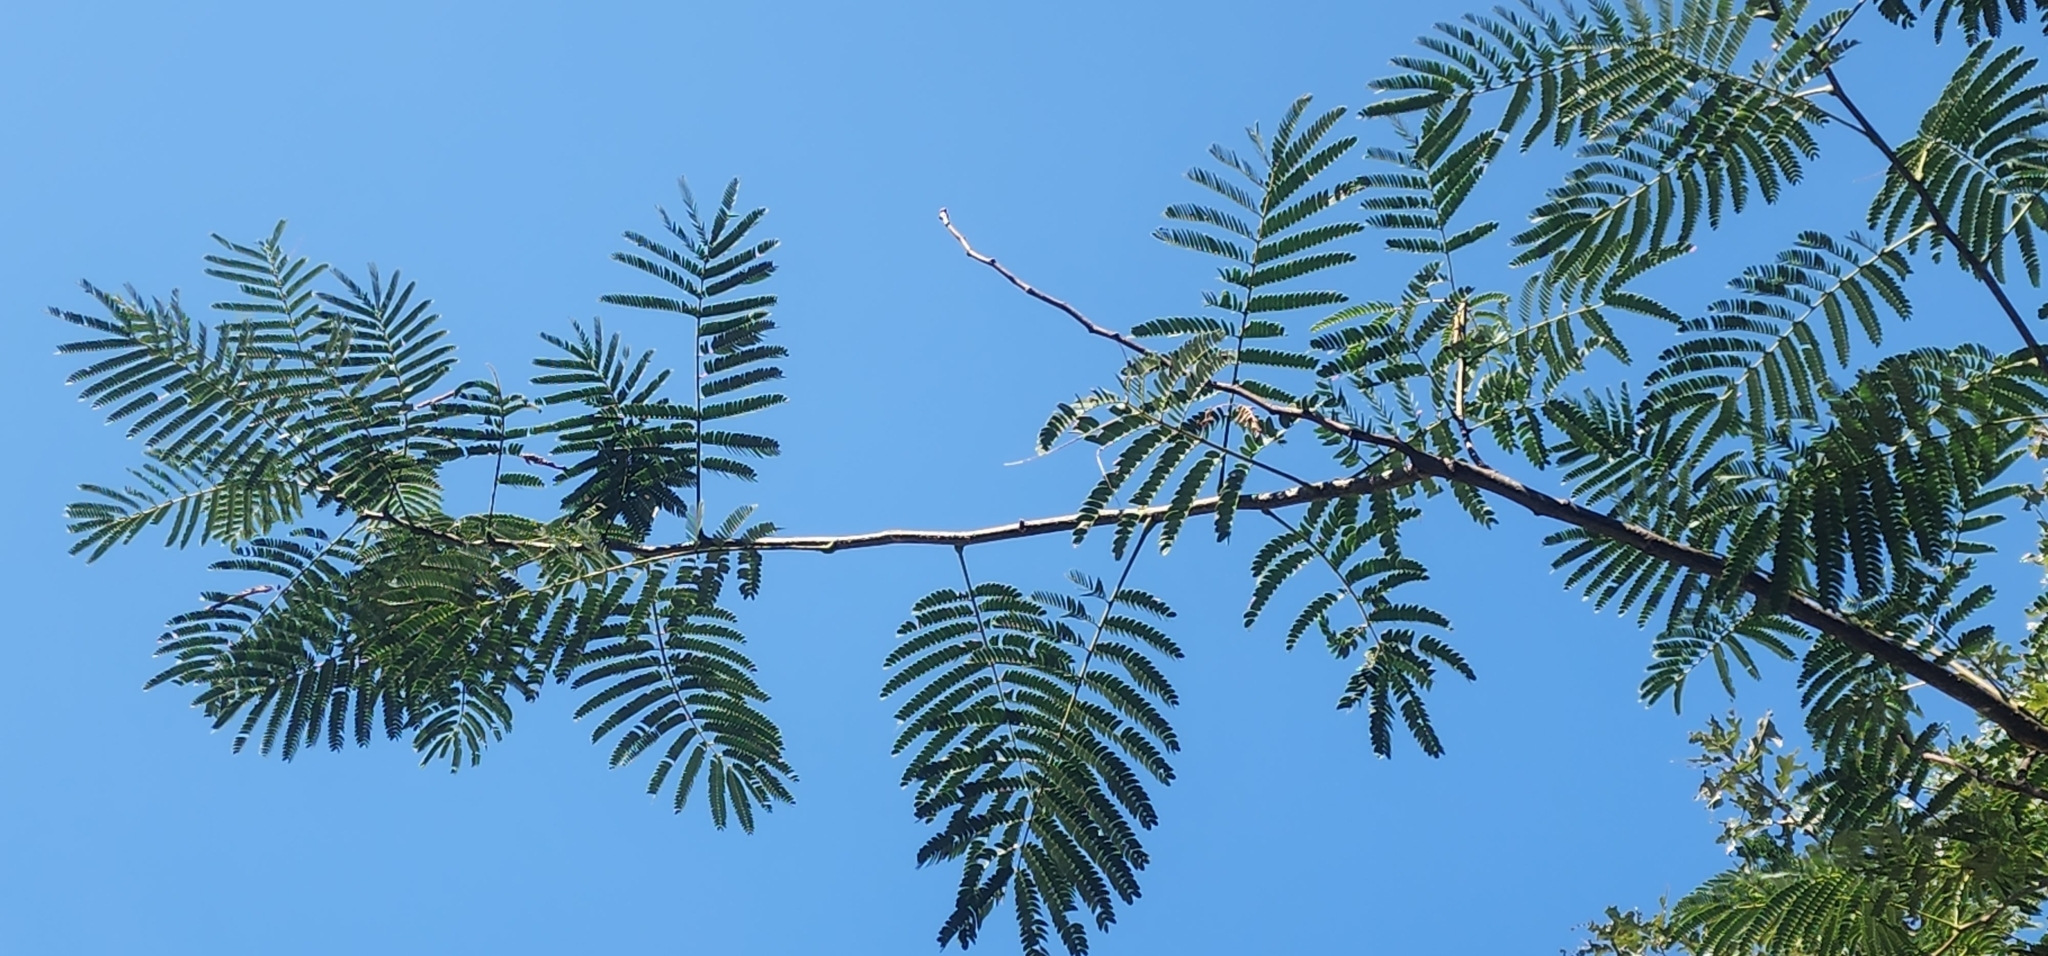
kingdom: Plantae
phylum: Tracheophyta
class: Magnoliopsida
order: Fabales
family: Fabaceae
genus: Albizia
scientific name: Albizia julibrissin
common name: Silktree
